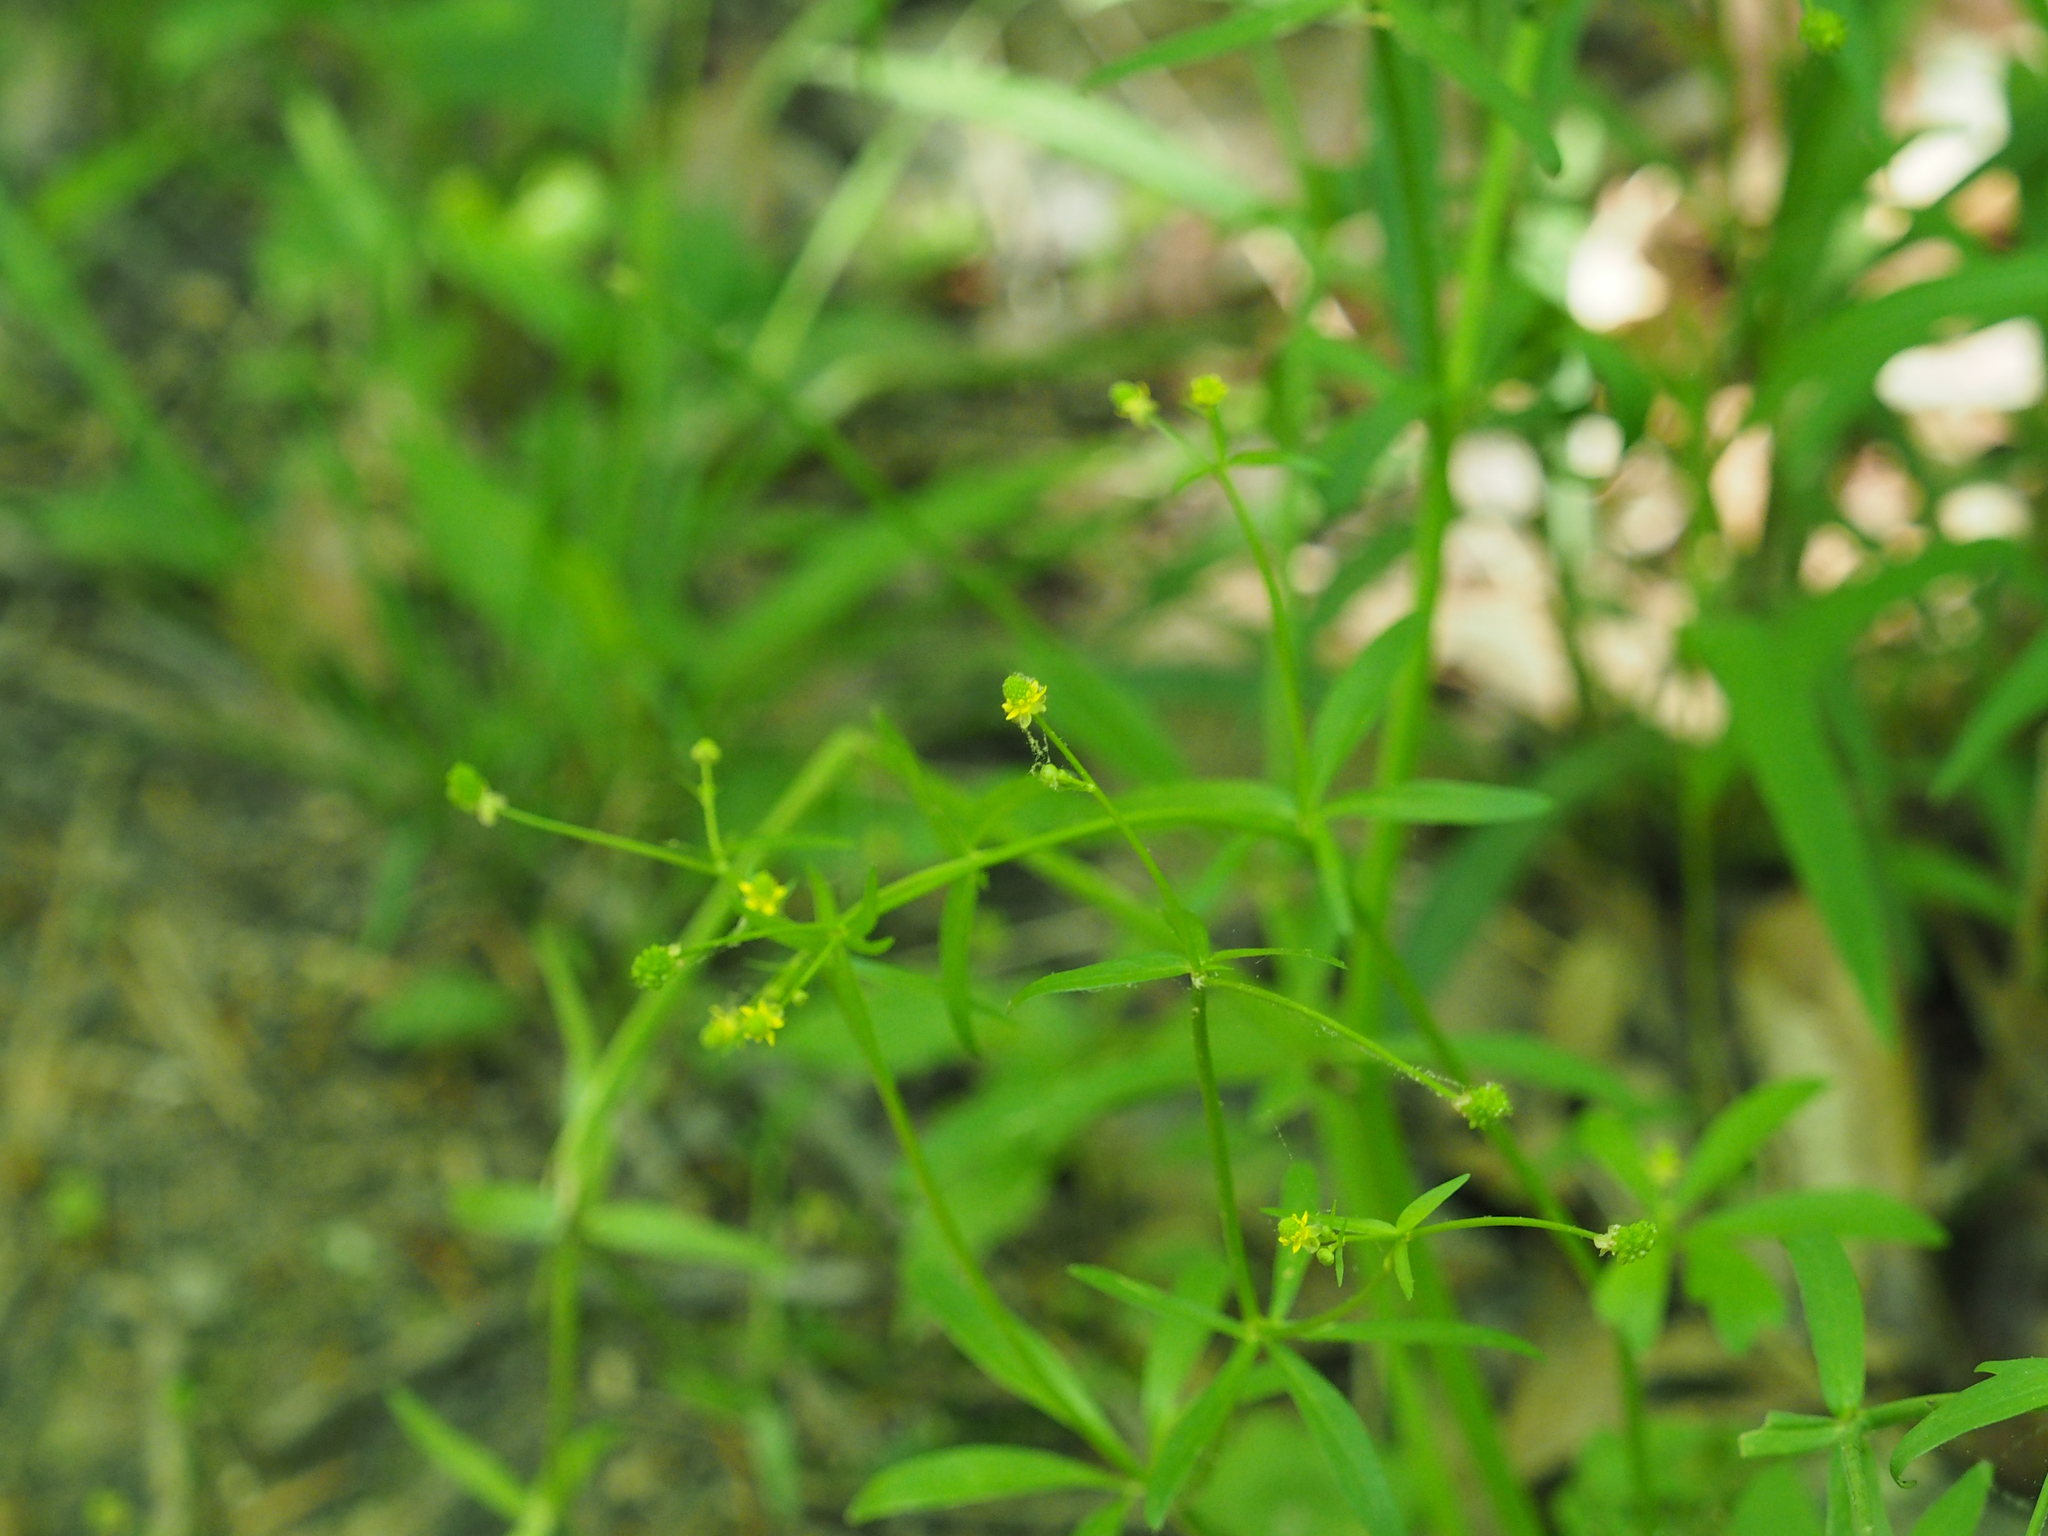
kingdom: Plantae
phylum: Tracheophyta
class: Magnoliopsida
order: Ranunculales
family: Ranunculaceae
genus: Ranunculus
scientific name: Ranunculus abortivus
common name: Early wood buttercup
